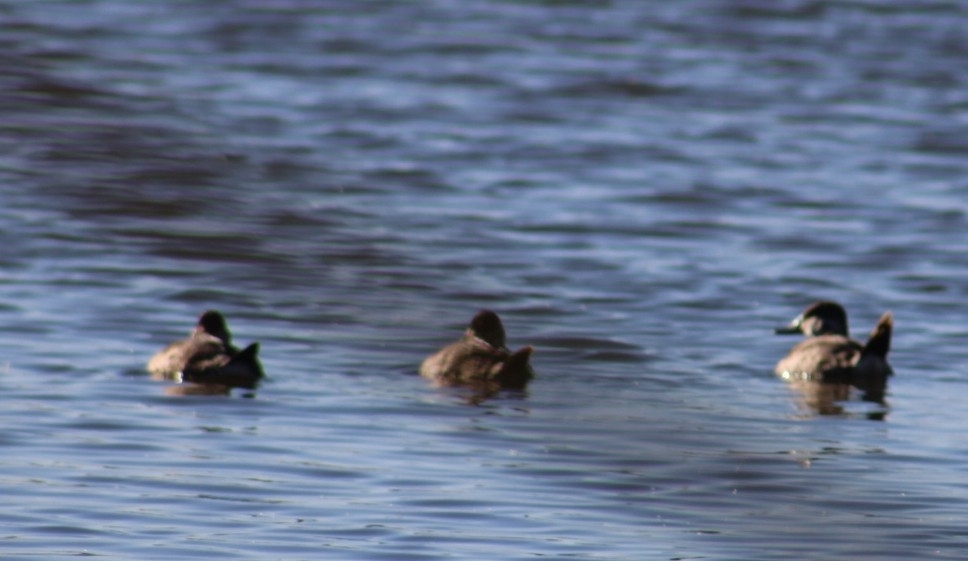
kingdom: Animalia
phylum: Chordata
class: Aves
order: Anseriformes
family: Anatidae
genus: Oxyura
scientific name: Oxyura jamaicensis
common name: Ruddy duck
